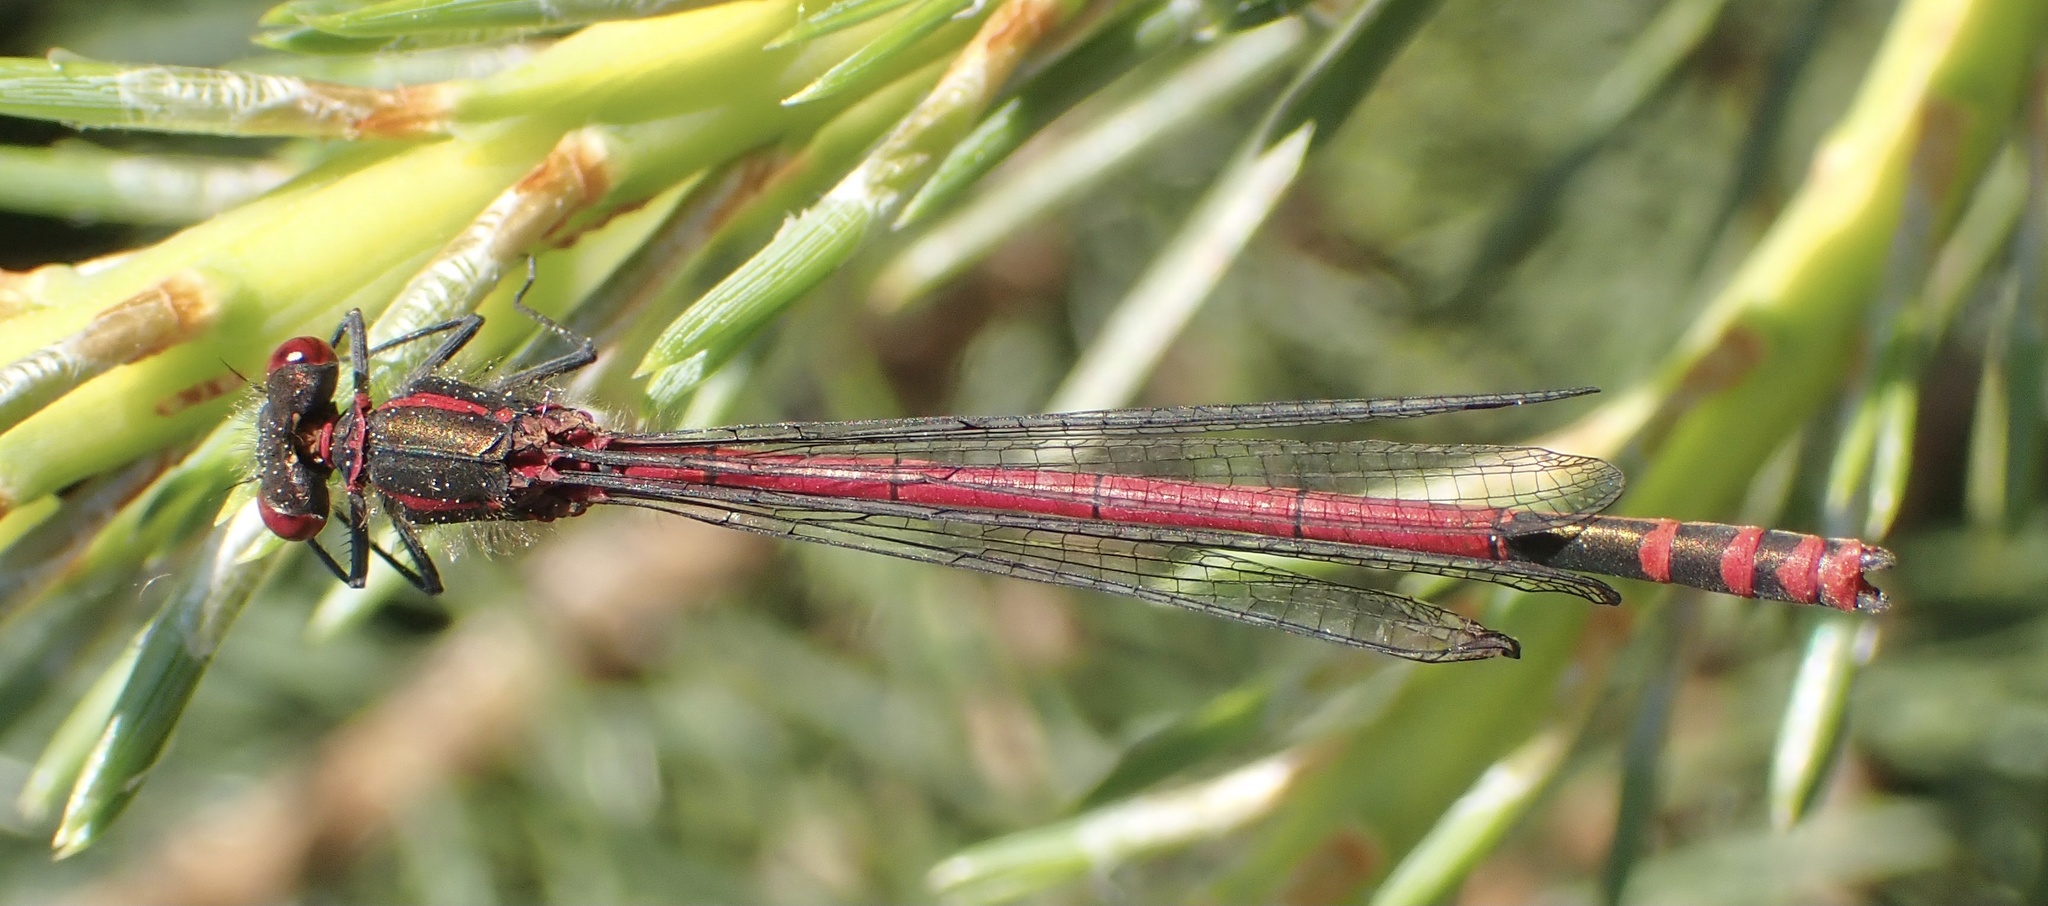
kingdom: Animalia
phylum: Arthropoda
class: Insecta
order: Odonata
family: Coenagrionidae
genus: Pyrrhosoma
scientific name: Pyrrhosoma nymphula
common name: Large red damsel
